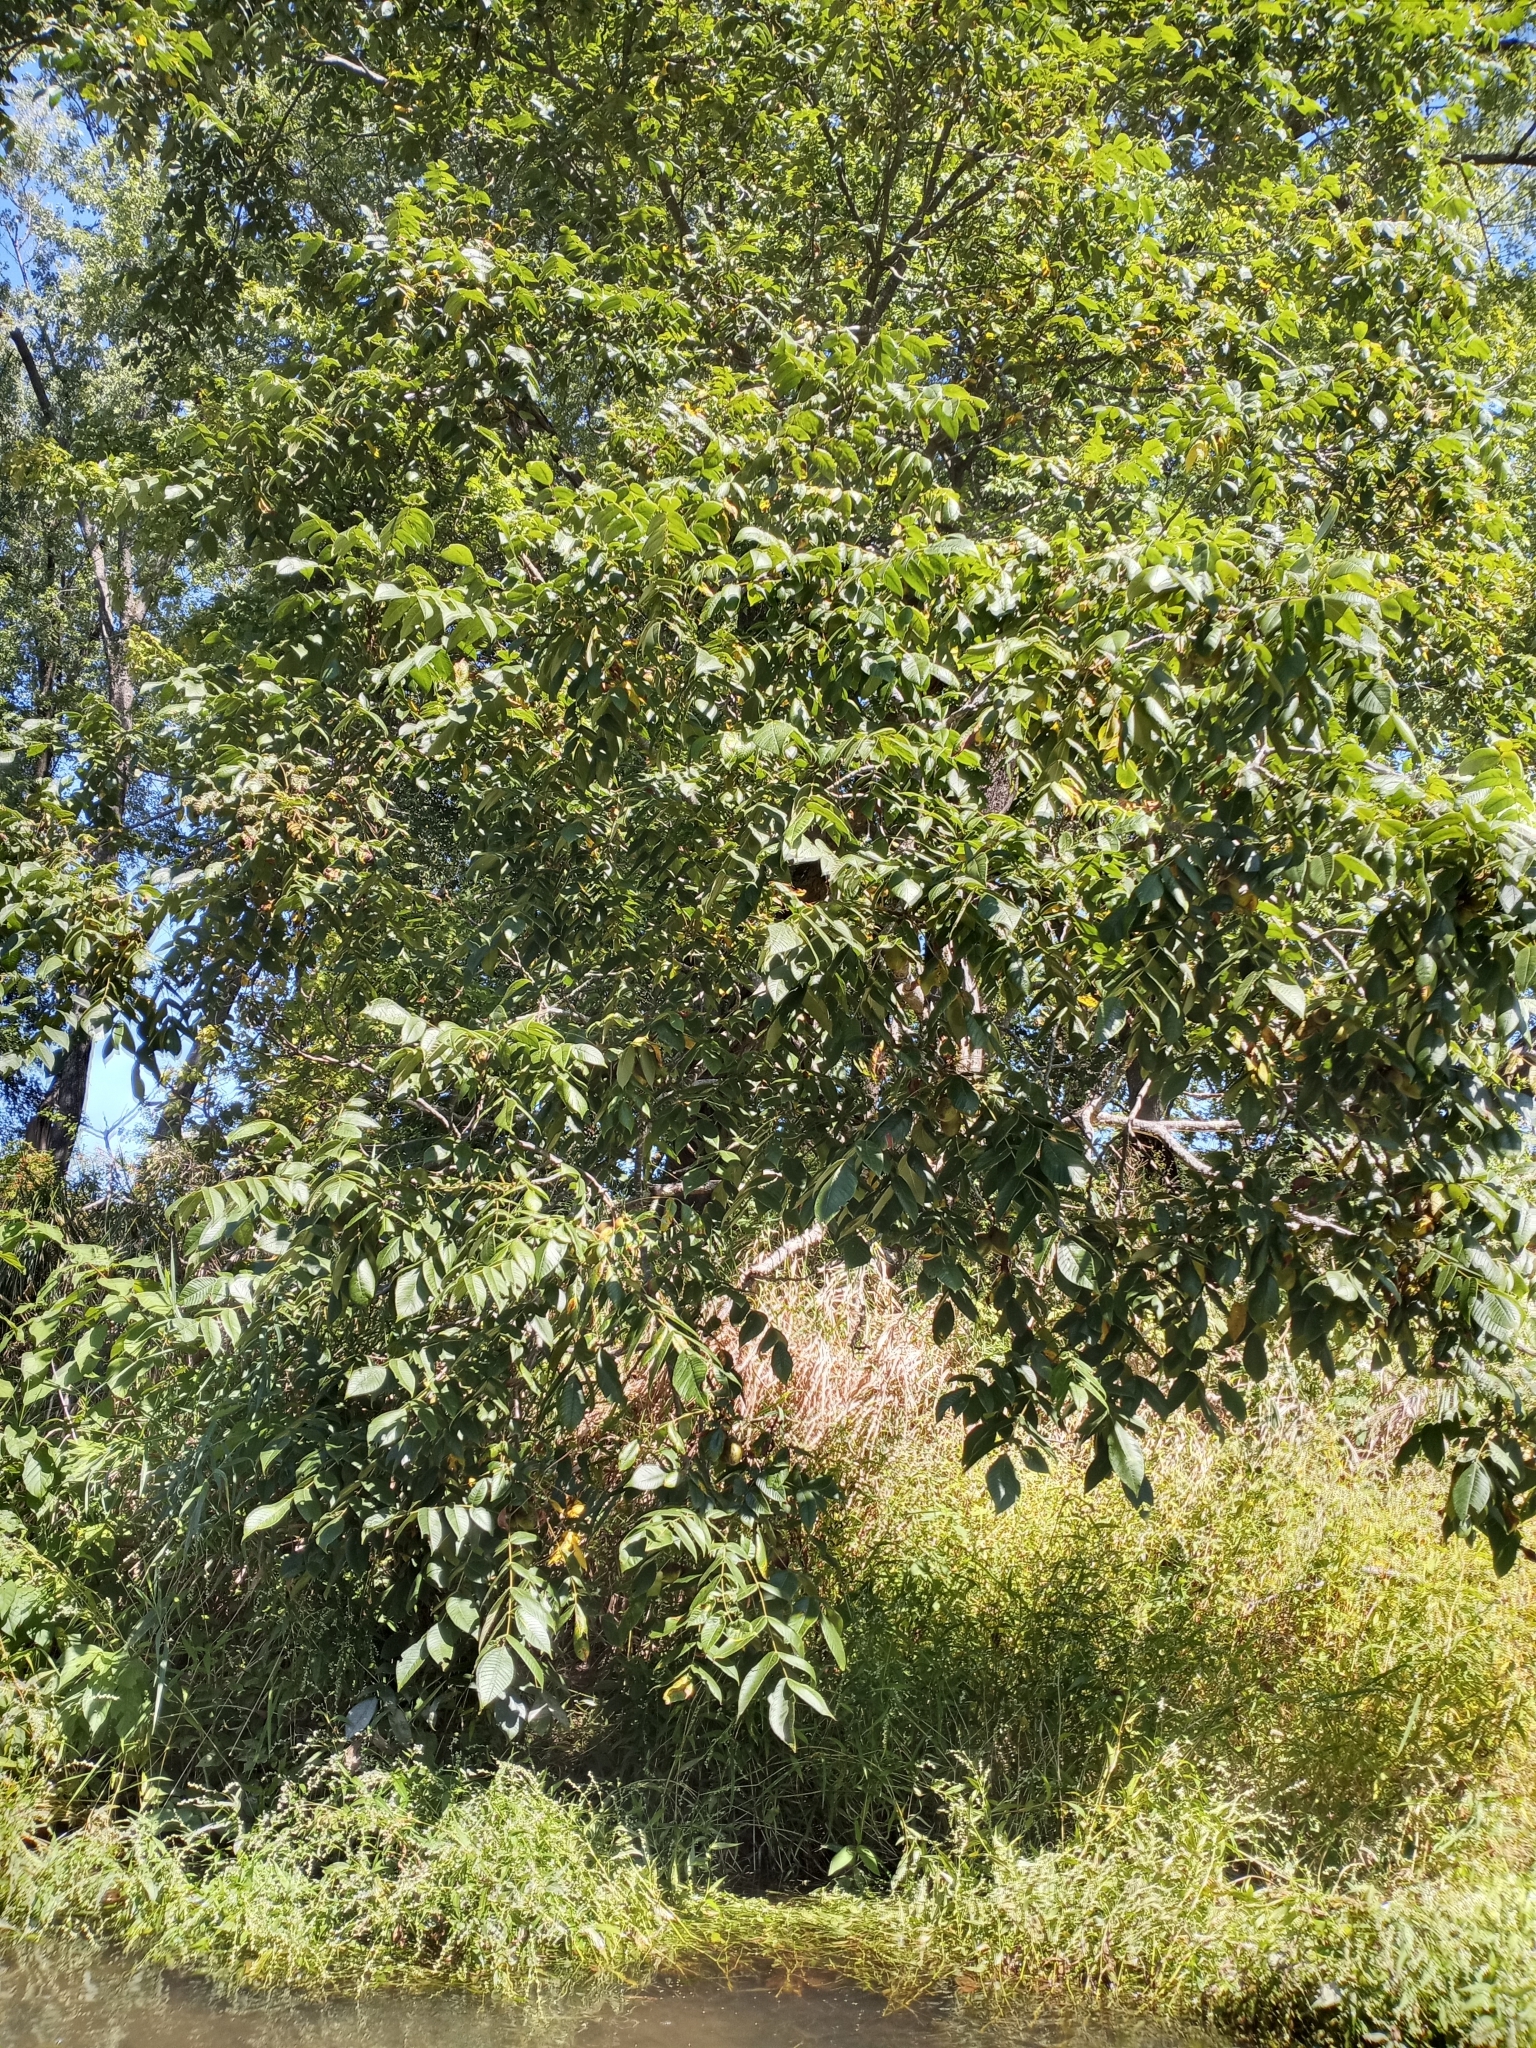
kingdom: Plantae
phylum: Tracheophyta
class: Magnoliopsida
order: Fagales
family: Juglandaceae
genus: Juglans
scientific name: Juglans cinerea
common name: Butternut
